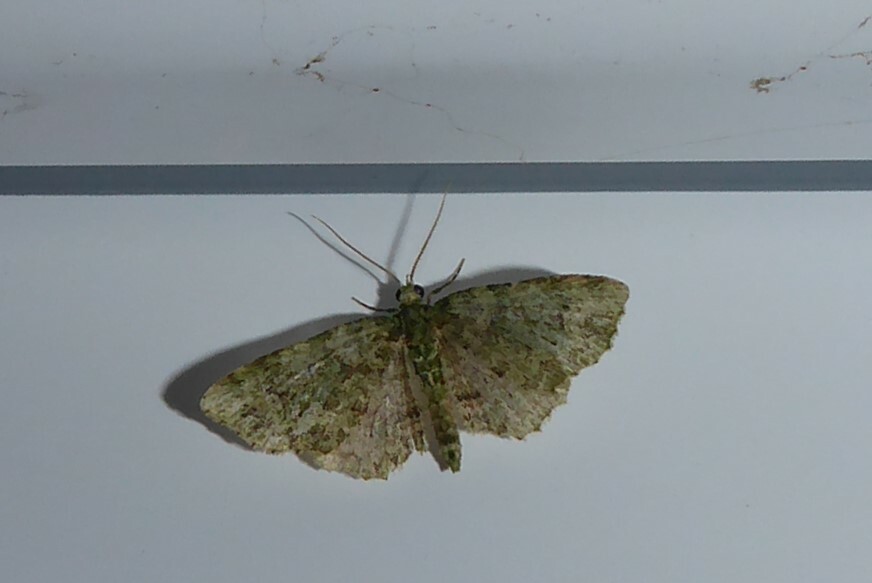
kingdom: Animalia
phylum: Arthropoda
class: Insecta
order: Lepidoptera
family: Geometridae
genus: Pasiphila
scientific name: Pasiphila muscosata
